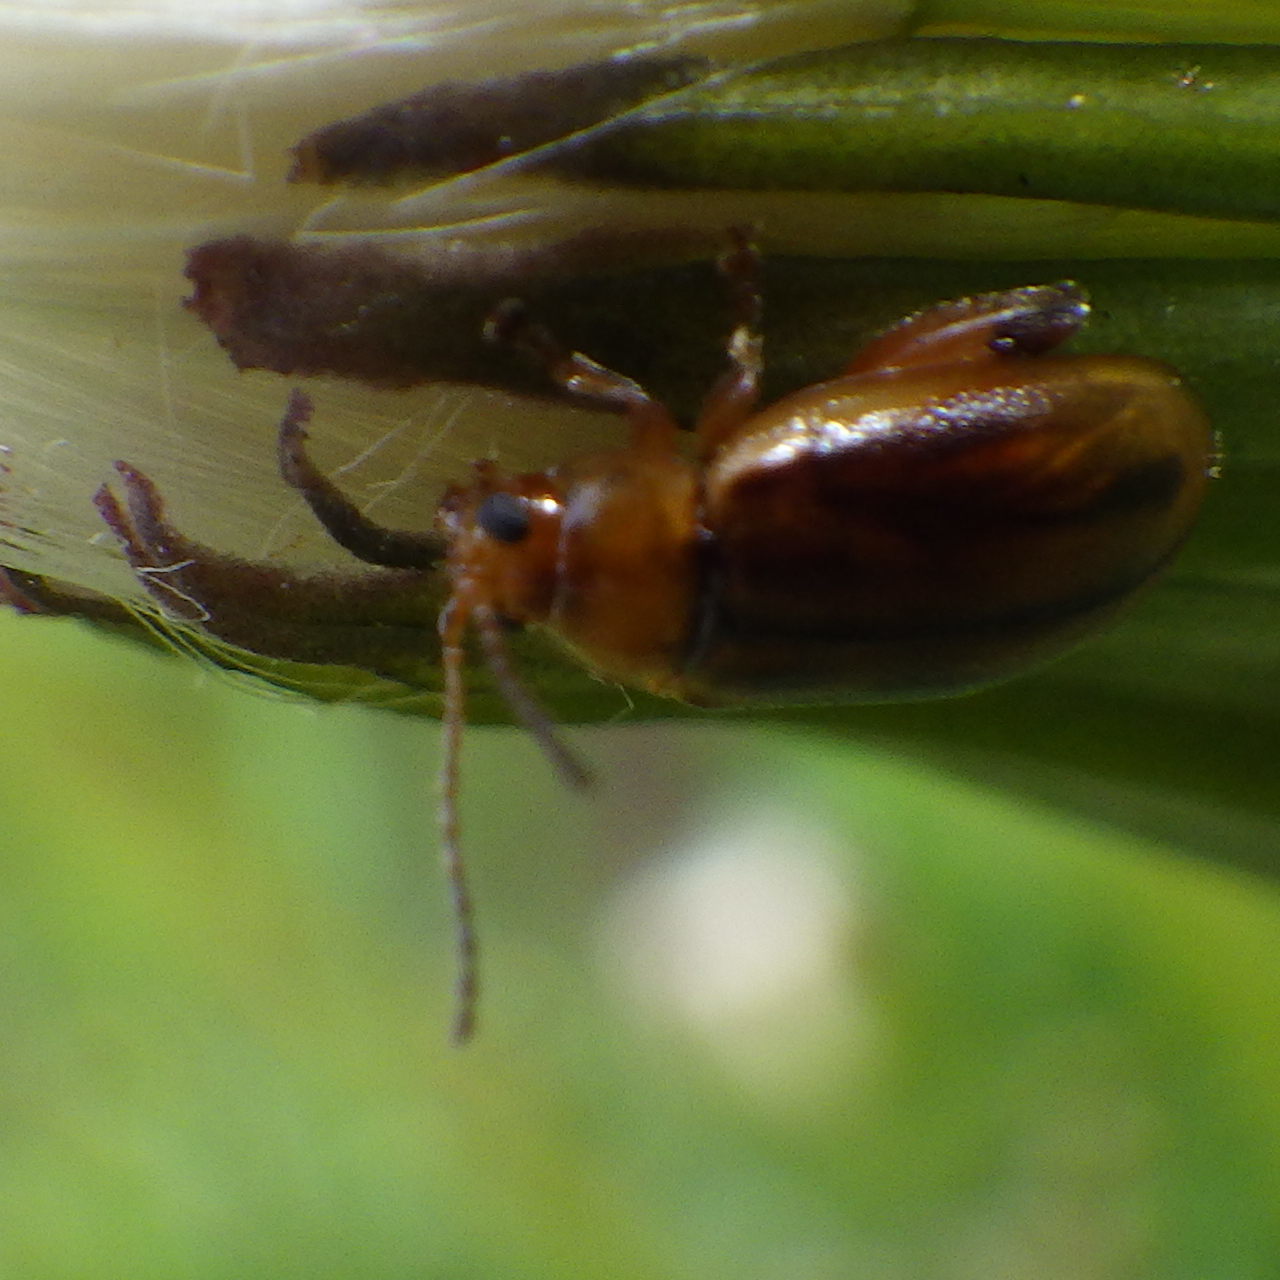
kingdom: Animalia
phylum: Arthropoda
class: Insecta
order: Coleoptera
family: Chrysomelidae
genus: Capraita
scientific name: Capraita subvittata
